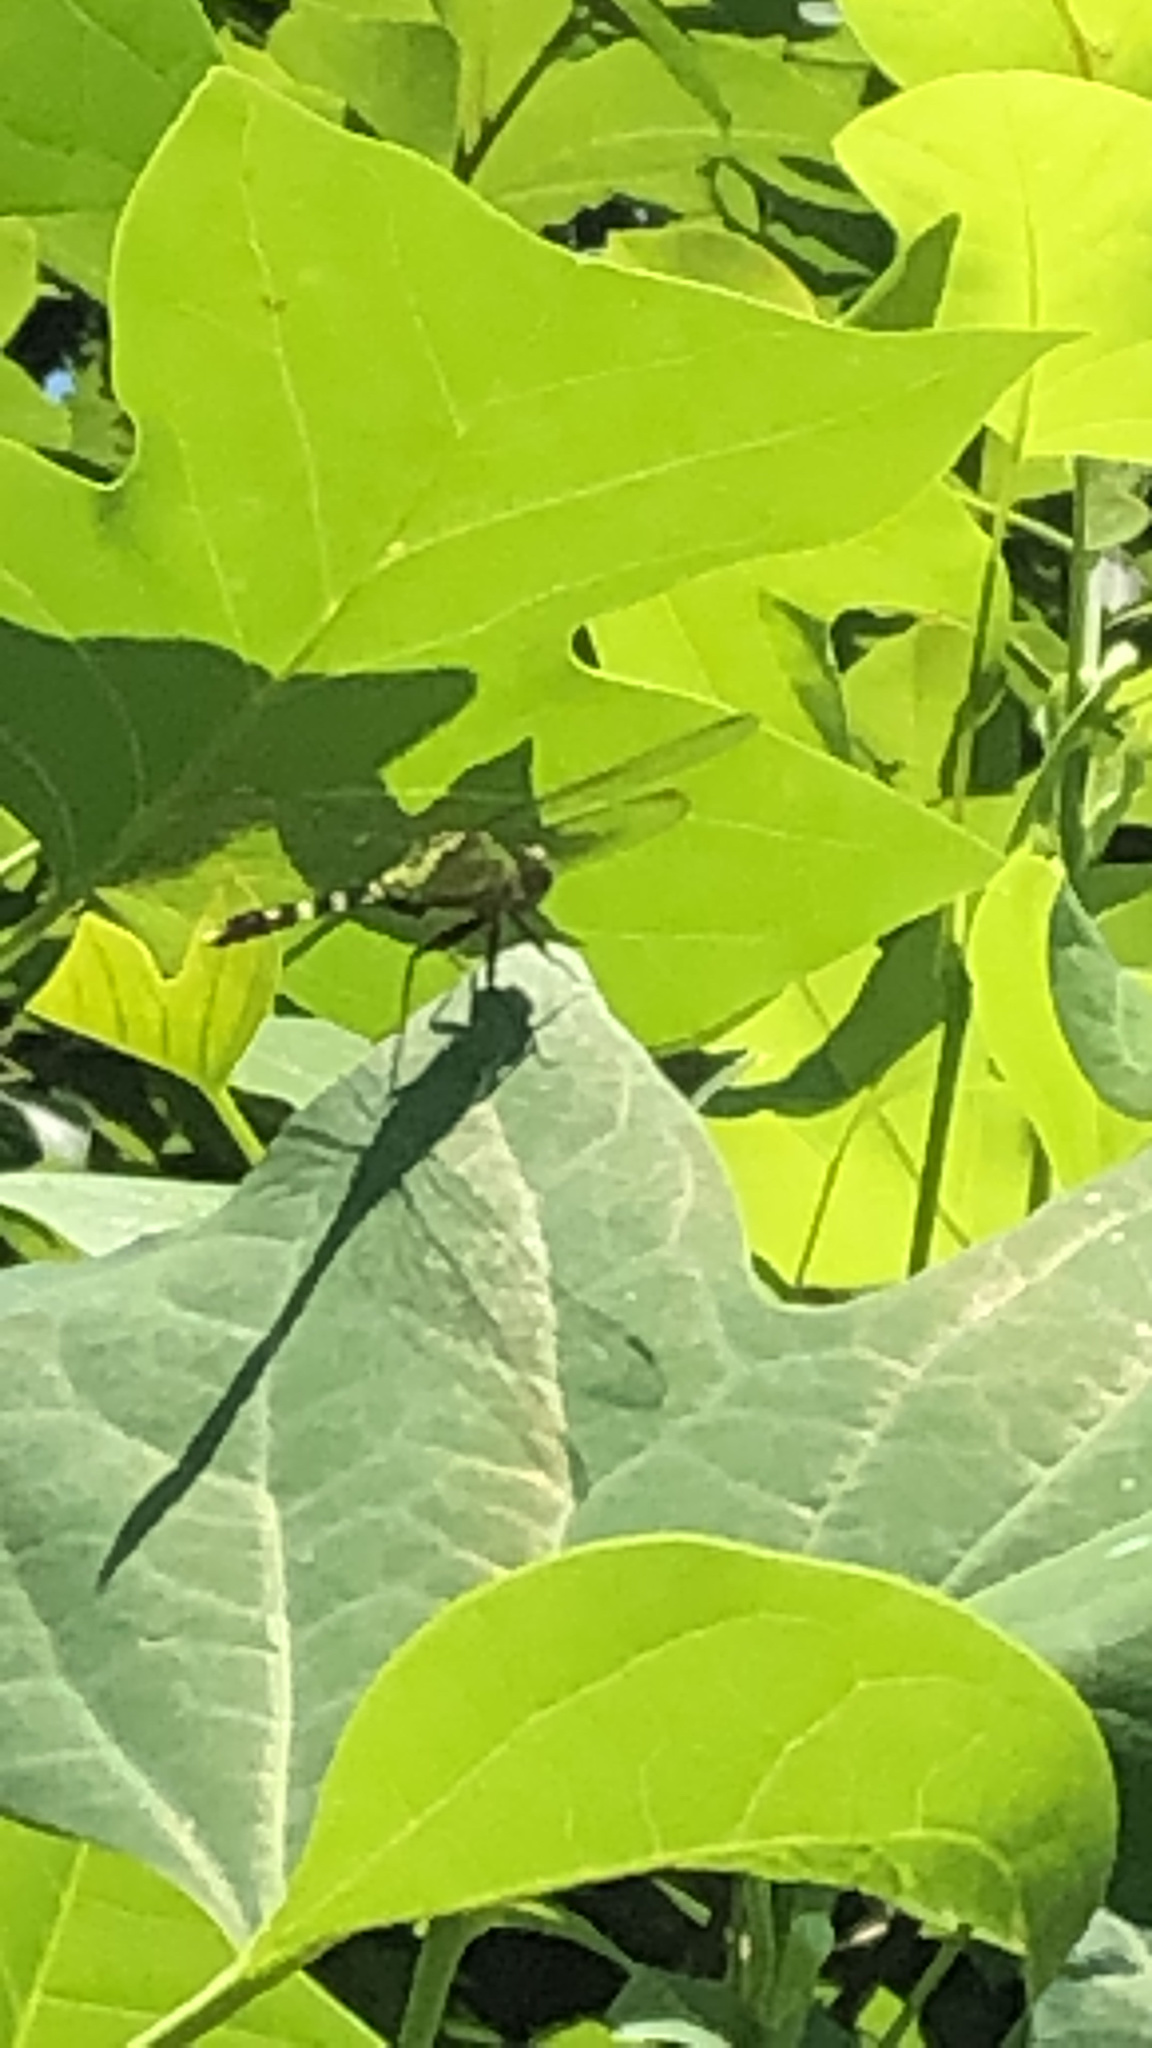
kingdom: Animalia
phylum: Arthropoda
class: Insecta
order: Odonata
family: Libellulidae
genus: Erythemis
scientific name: Erythemis simplicicollis
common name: Eastern pondhawk
